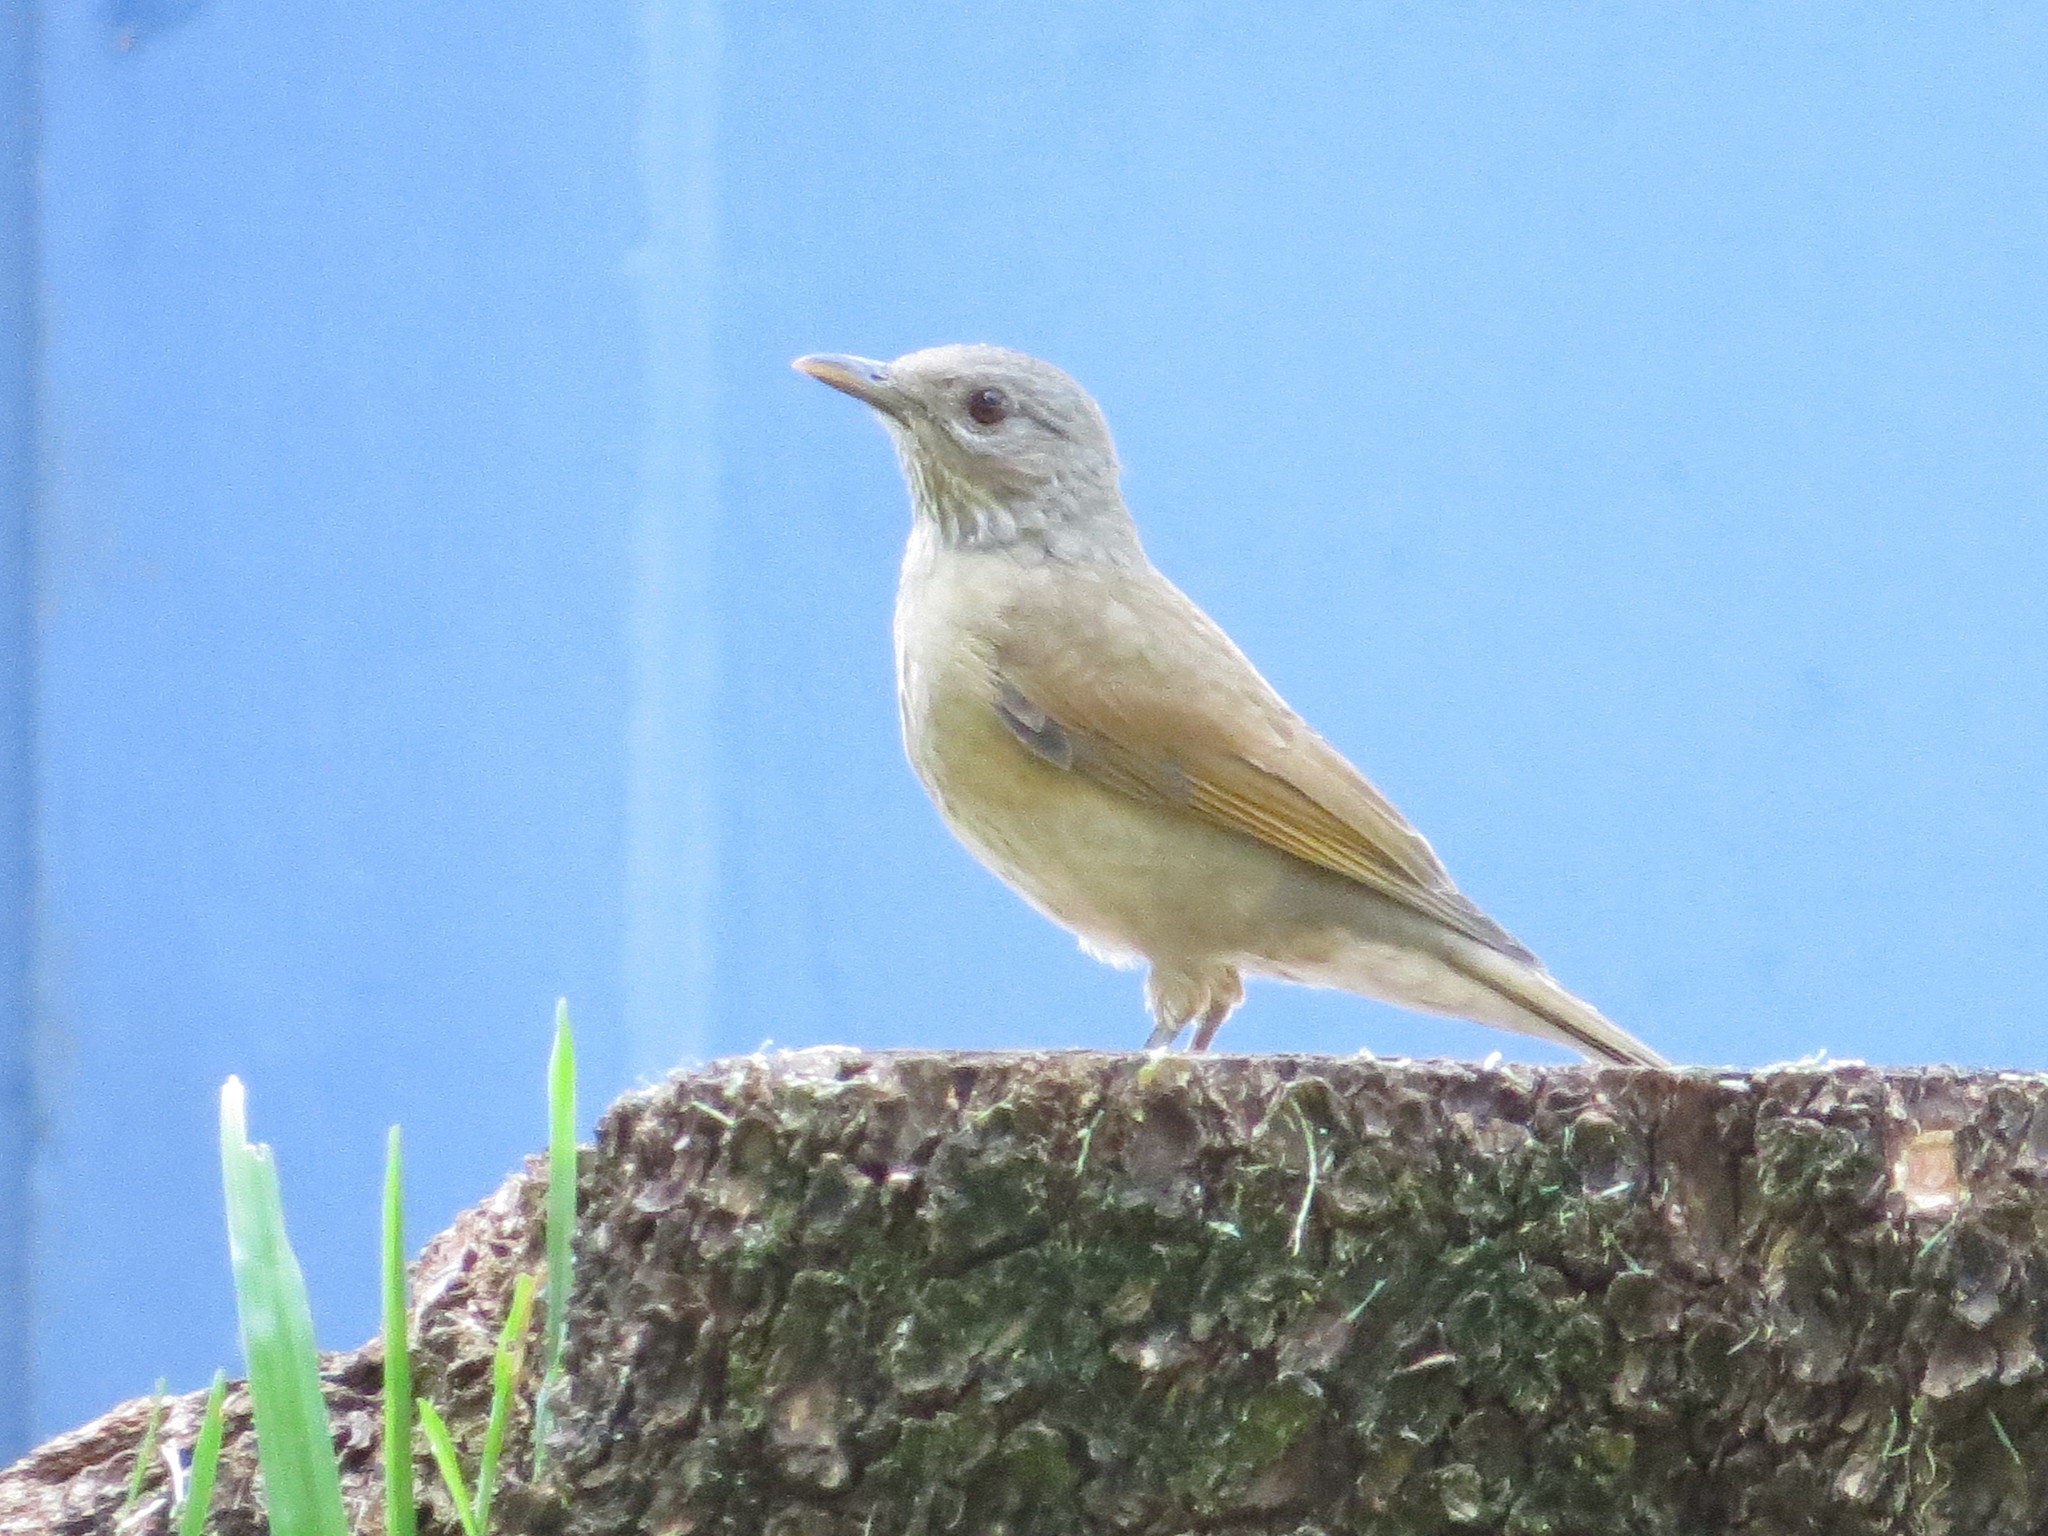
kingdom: Animalia
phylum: Chordata
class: Aves
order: Passeriformes
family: Turdidae
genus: Turdus
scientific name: Turdus leucomelas
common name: Pale-breasted thrush
